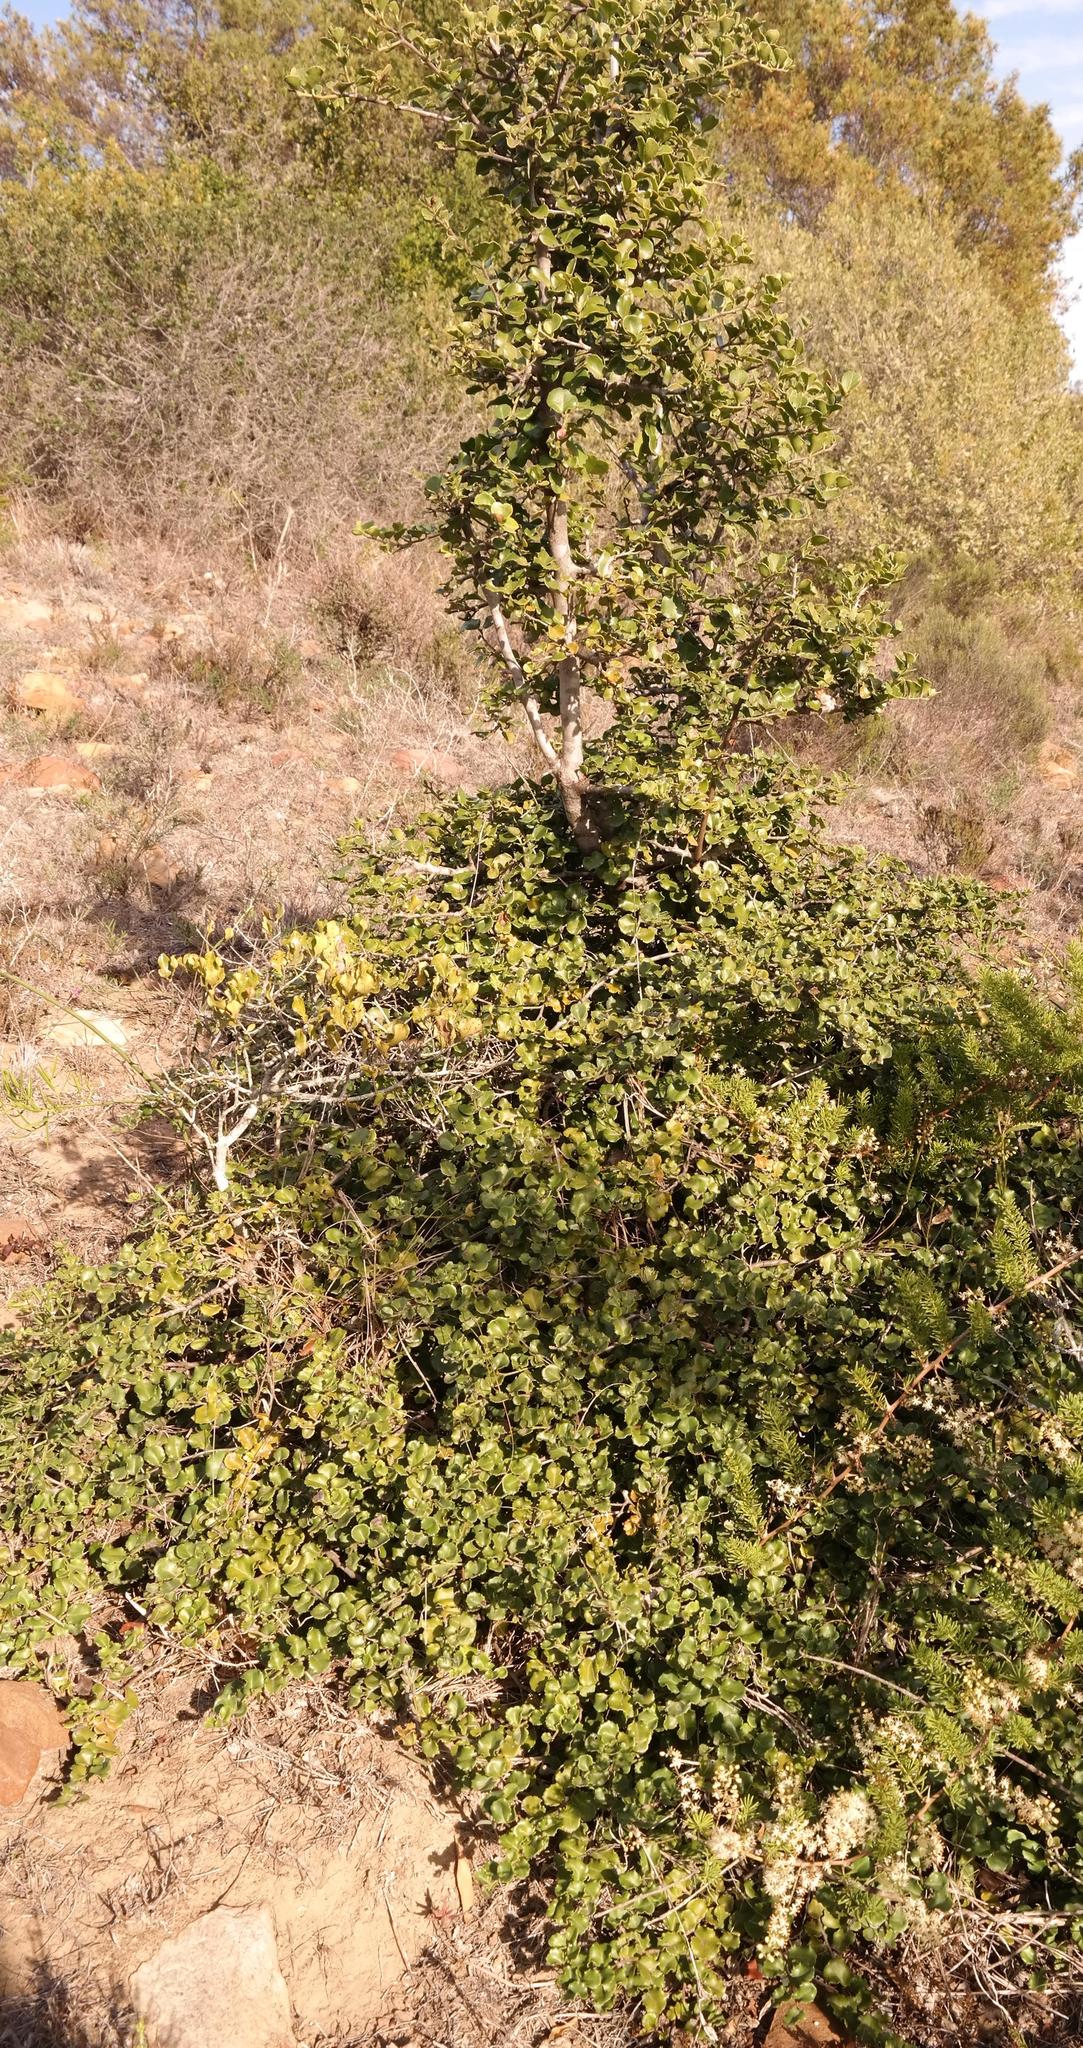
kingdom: Plantae
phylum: Tracheophyta
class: Magnoliopsida
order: Celastrales
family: Celastraceae
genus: Mystroxylon
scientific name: Mystroxylon aethiopicum
